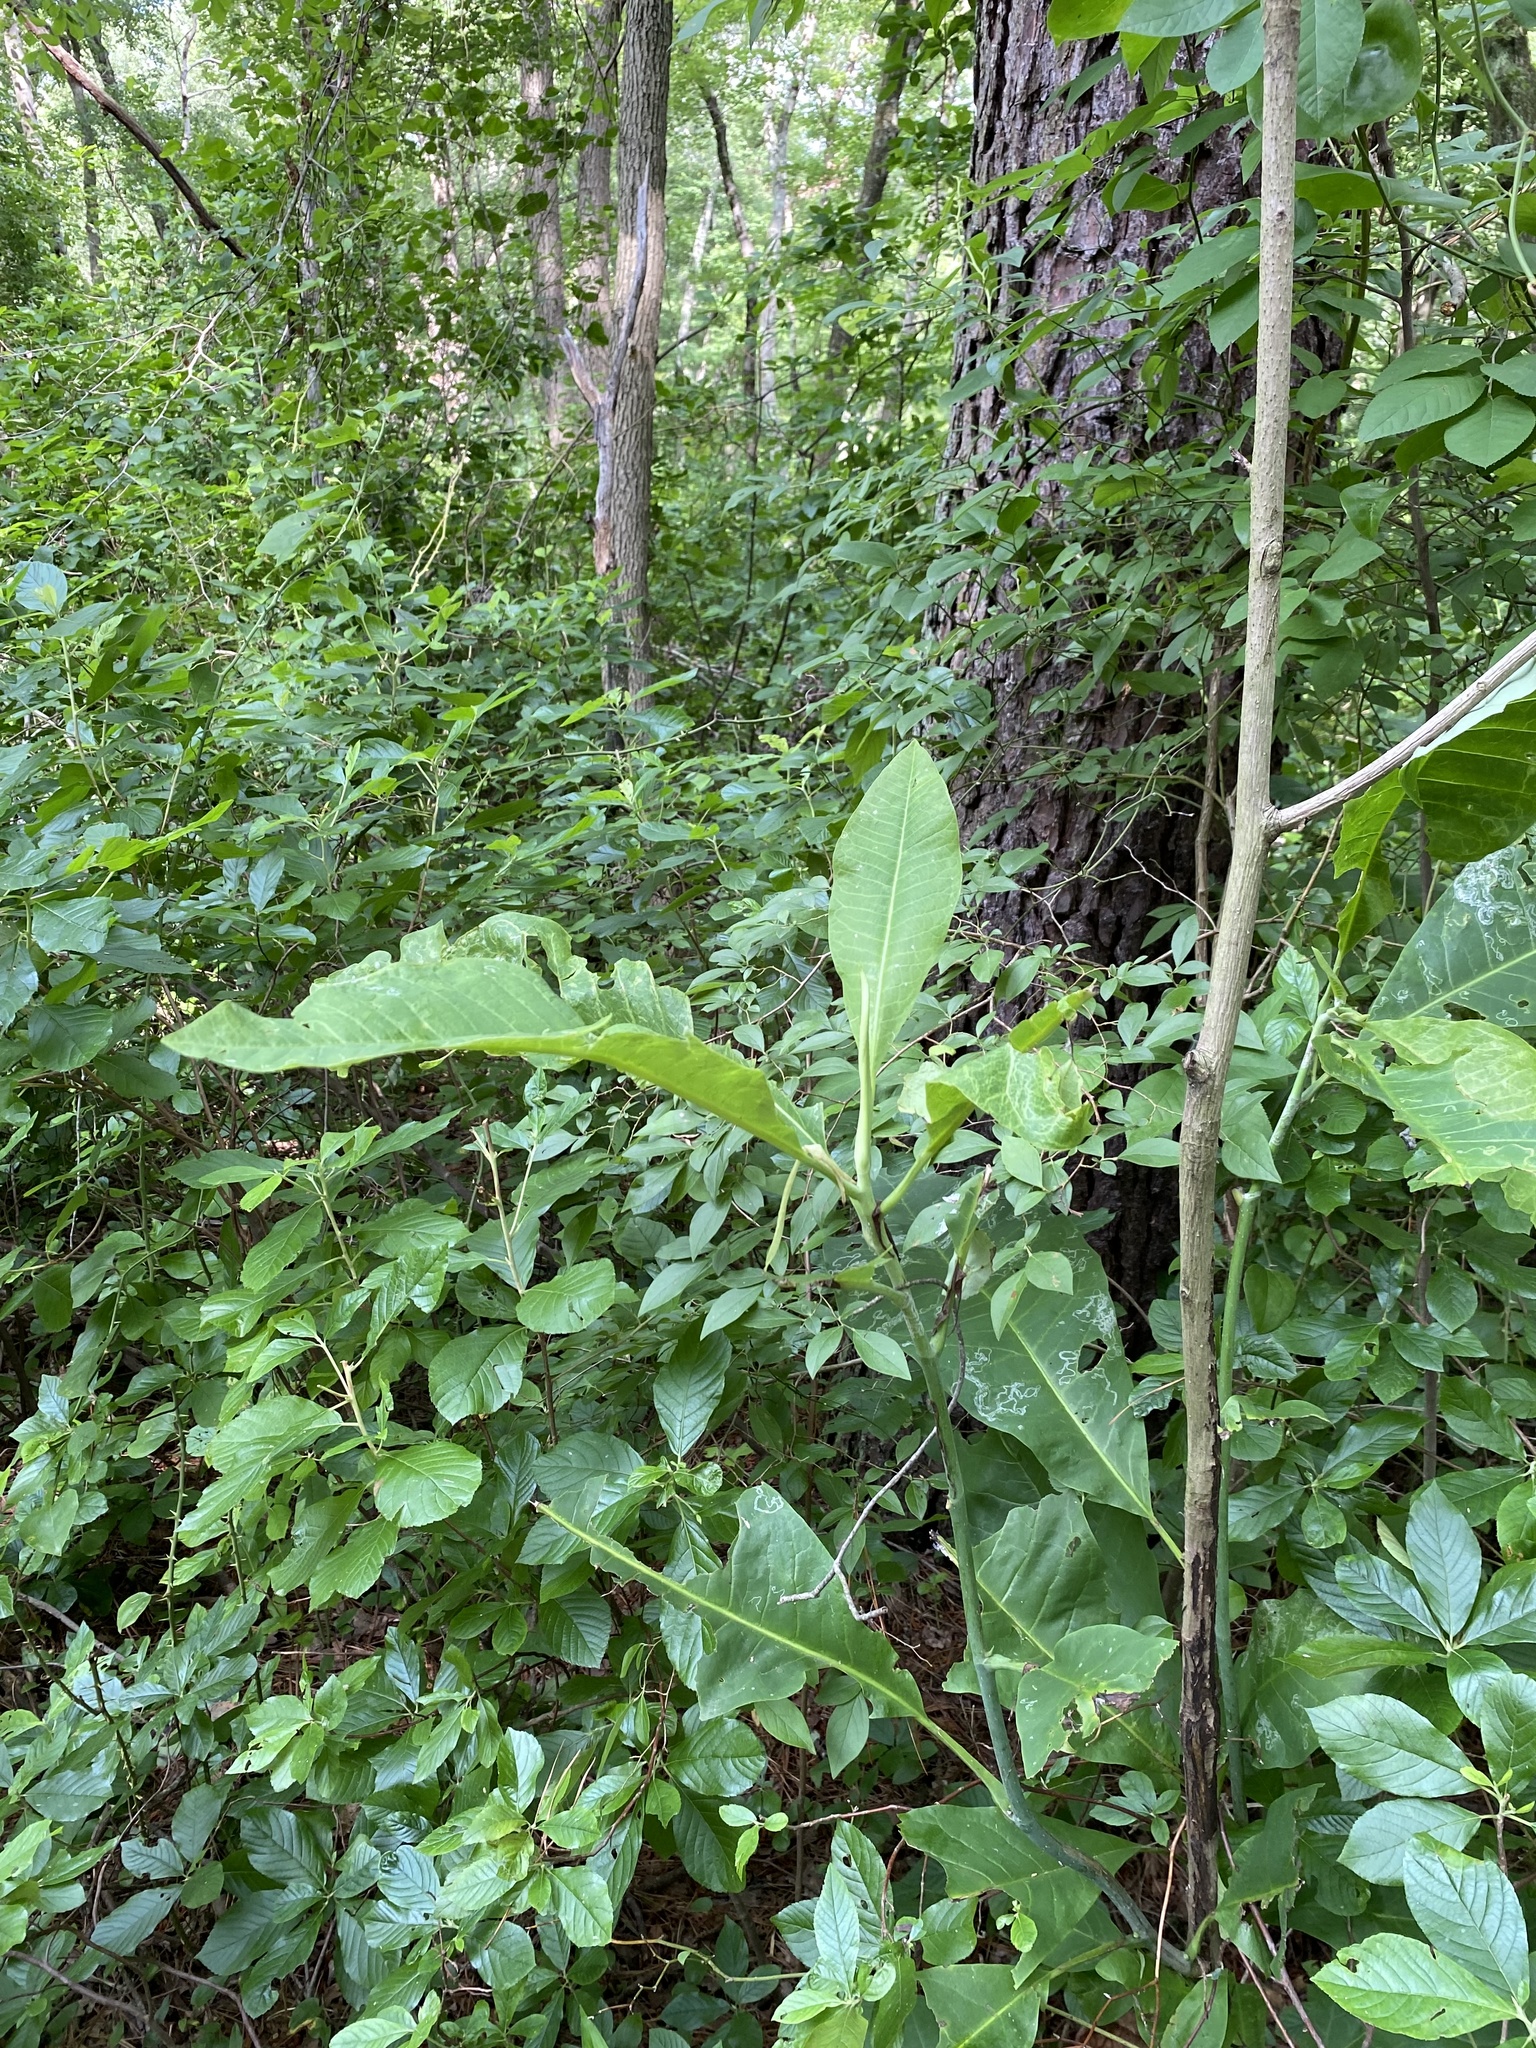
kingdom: Plantae
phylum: Tracheophyta
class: Magnoliopsida
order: Magnoliales
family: Magnoliaceae
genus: Magnolia
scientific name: Magnolia tripetala
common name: Umbrella magnolia
